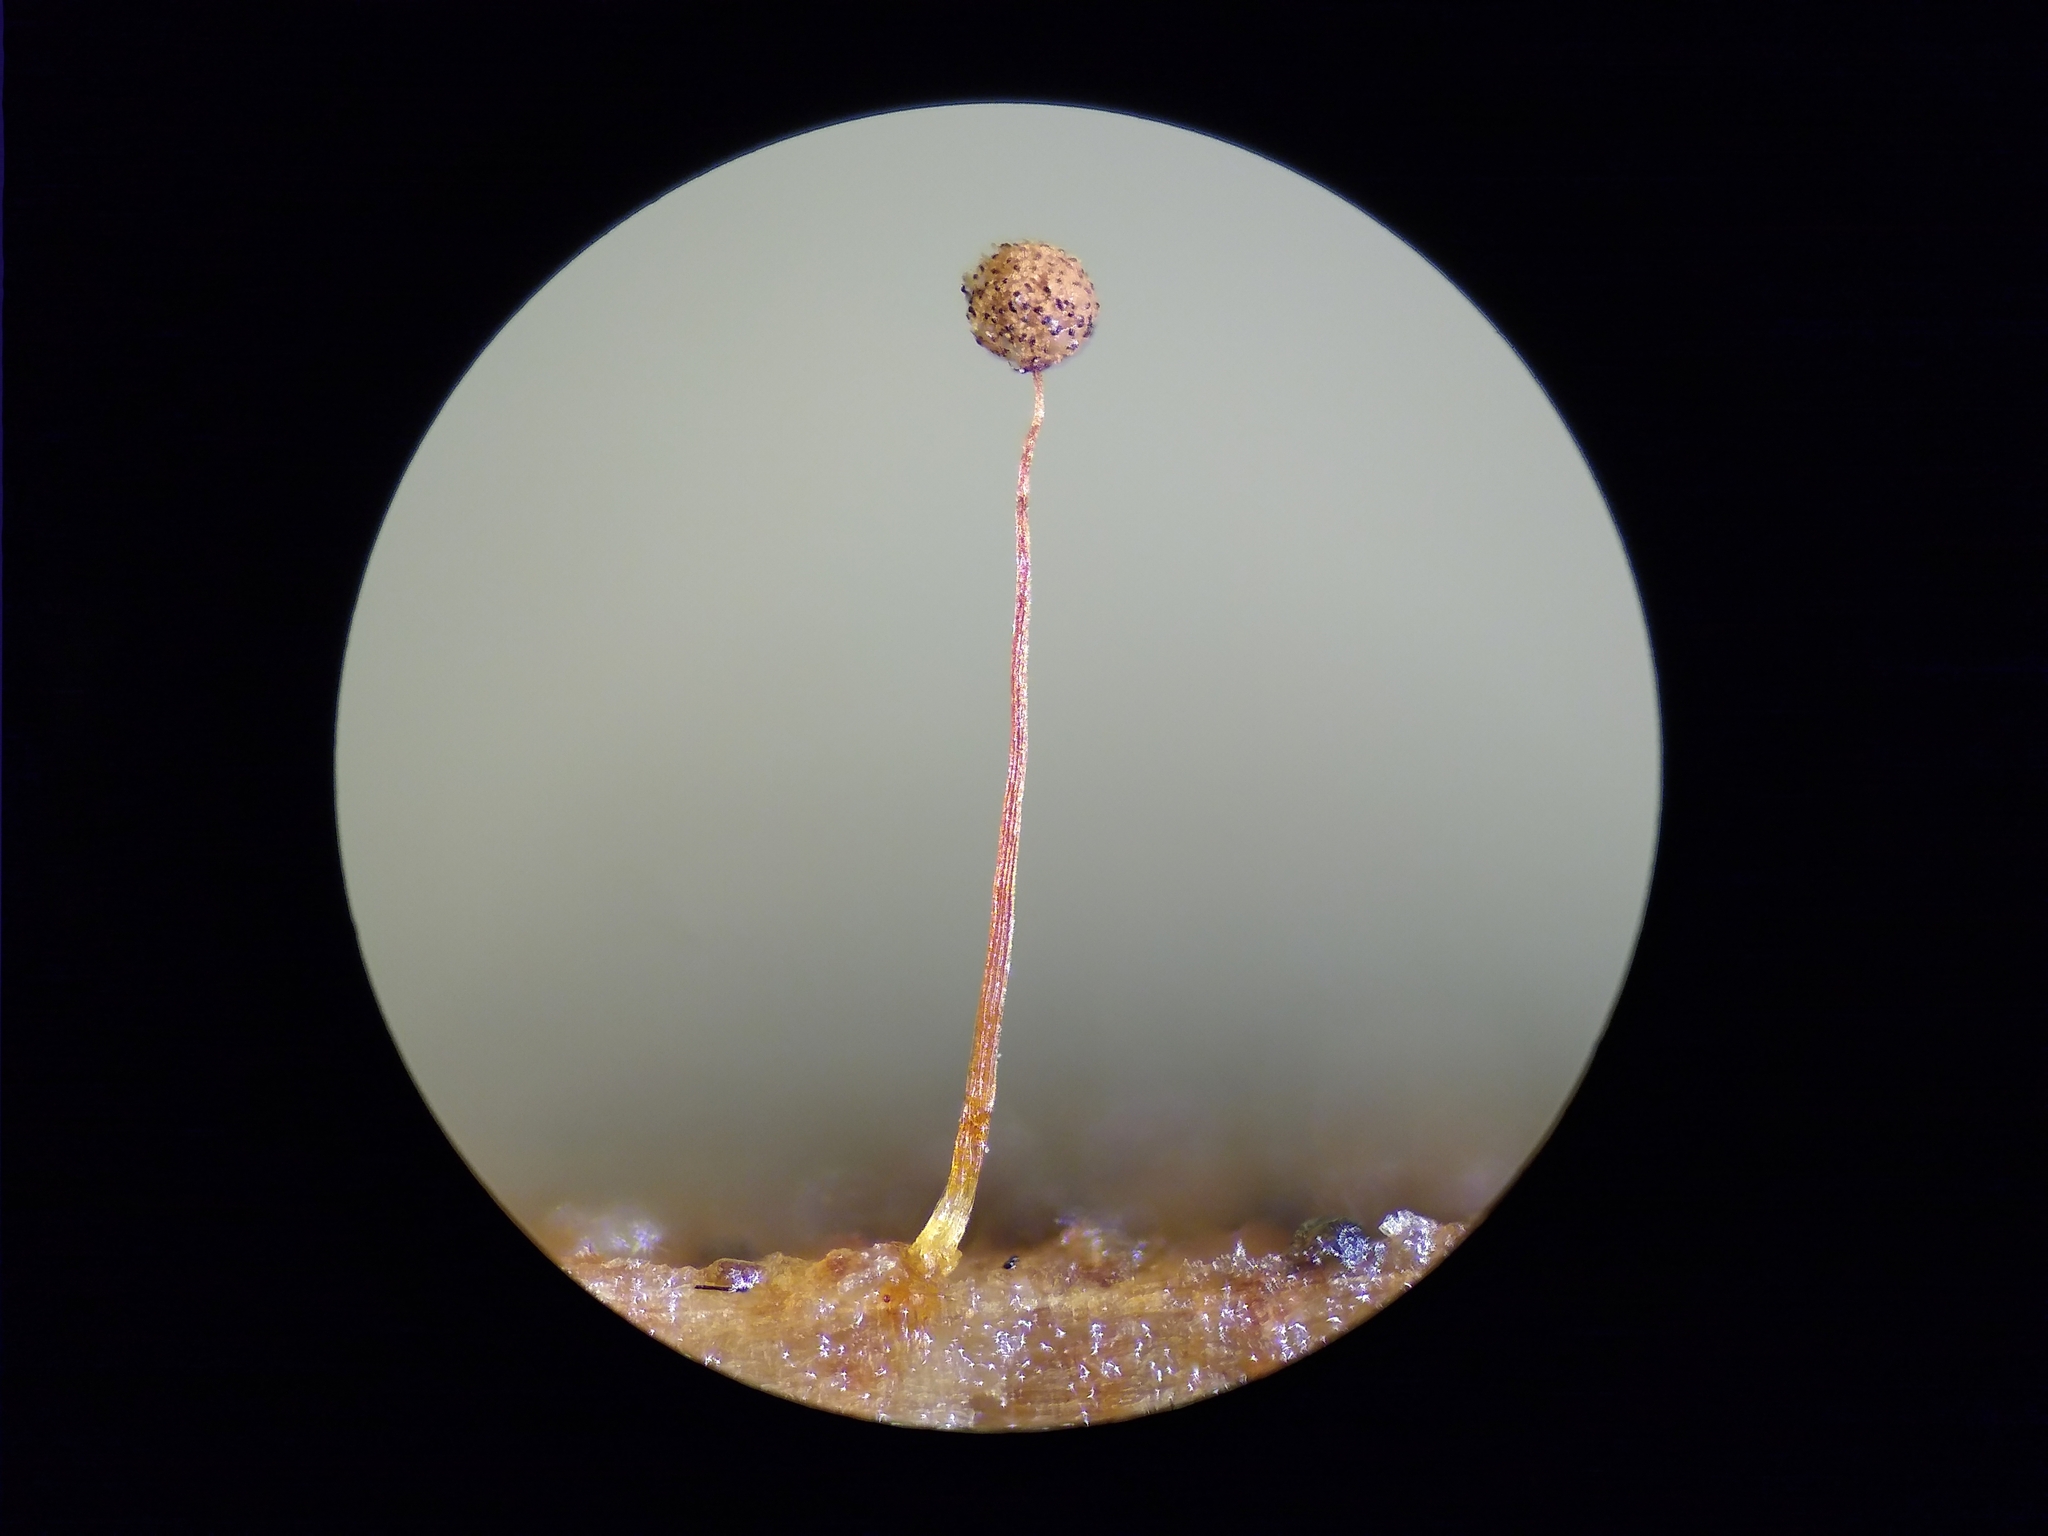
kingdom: Protozoa
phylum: Mycetozoa
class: Myxomycetes
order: Cribrariales
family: Cribrariaceae
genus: Cribraria
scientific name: Cribraria microcarpa
